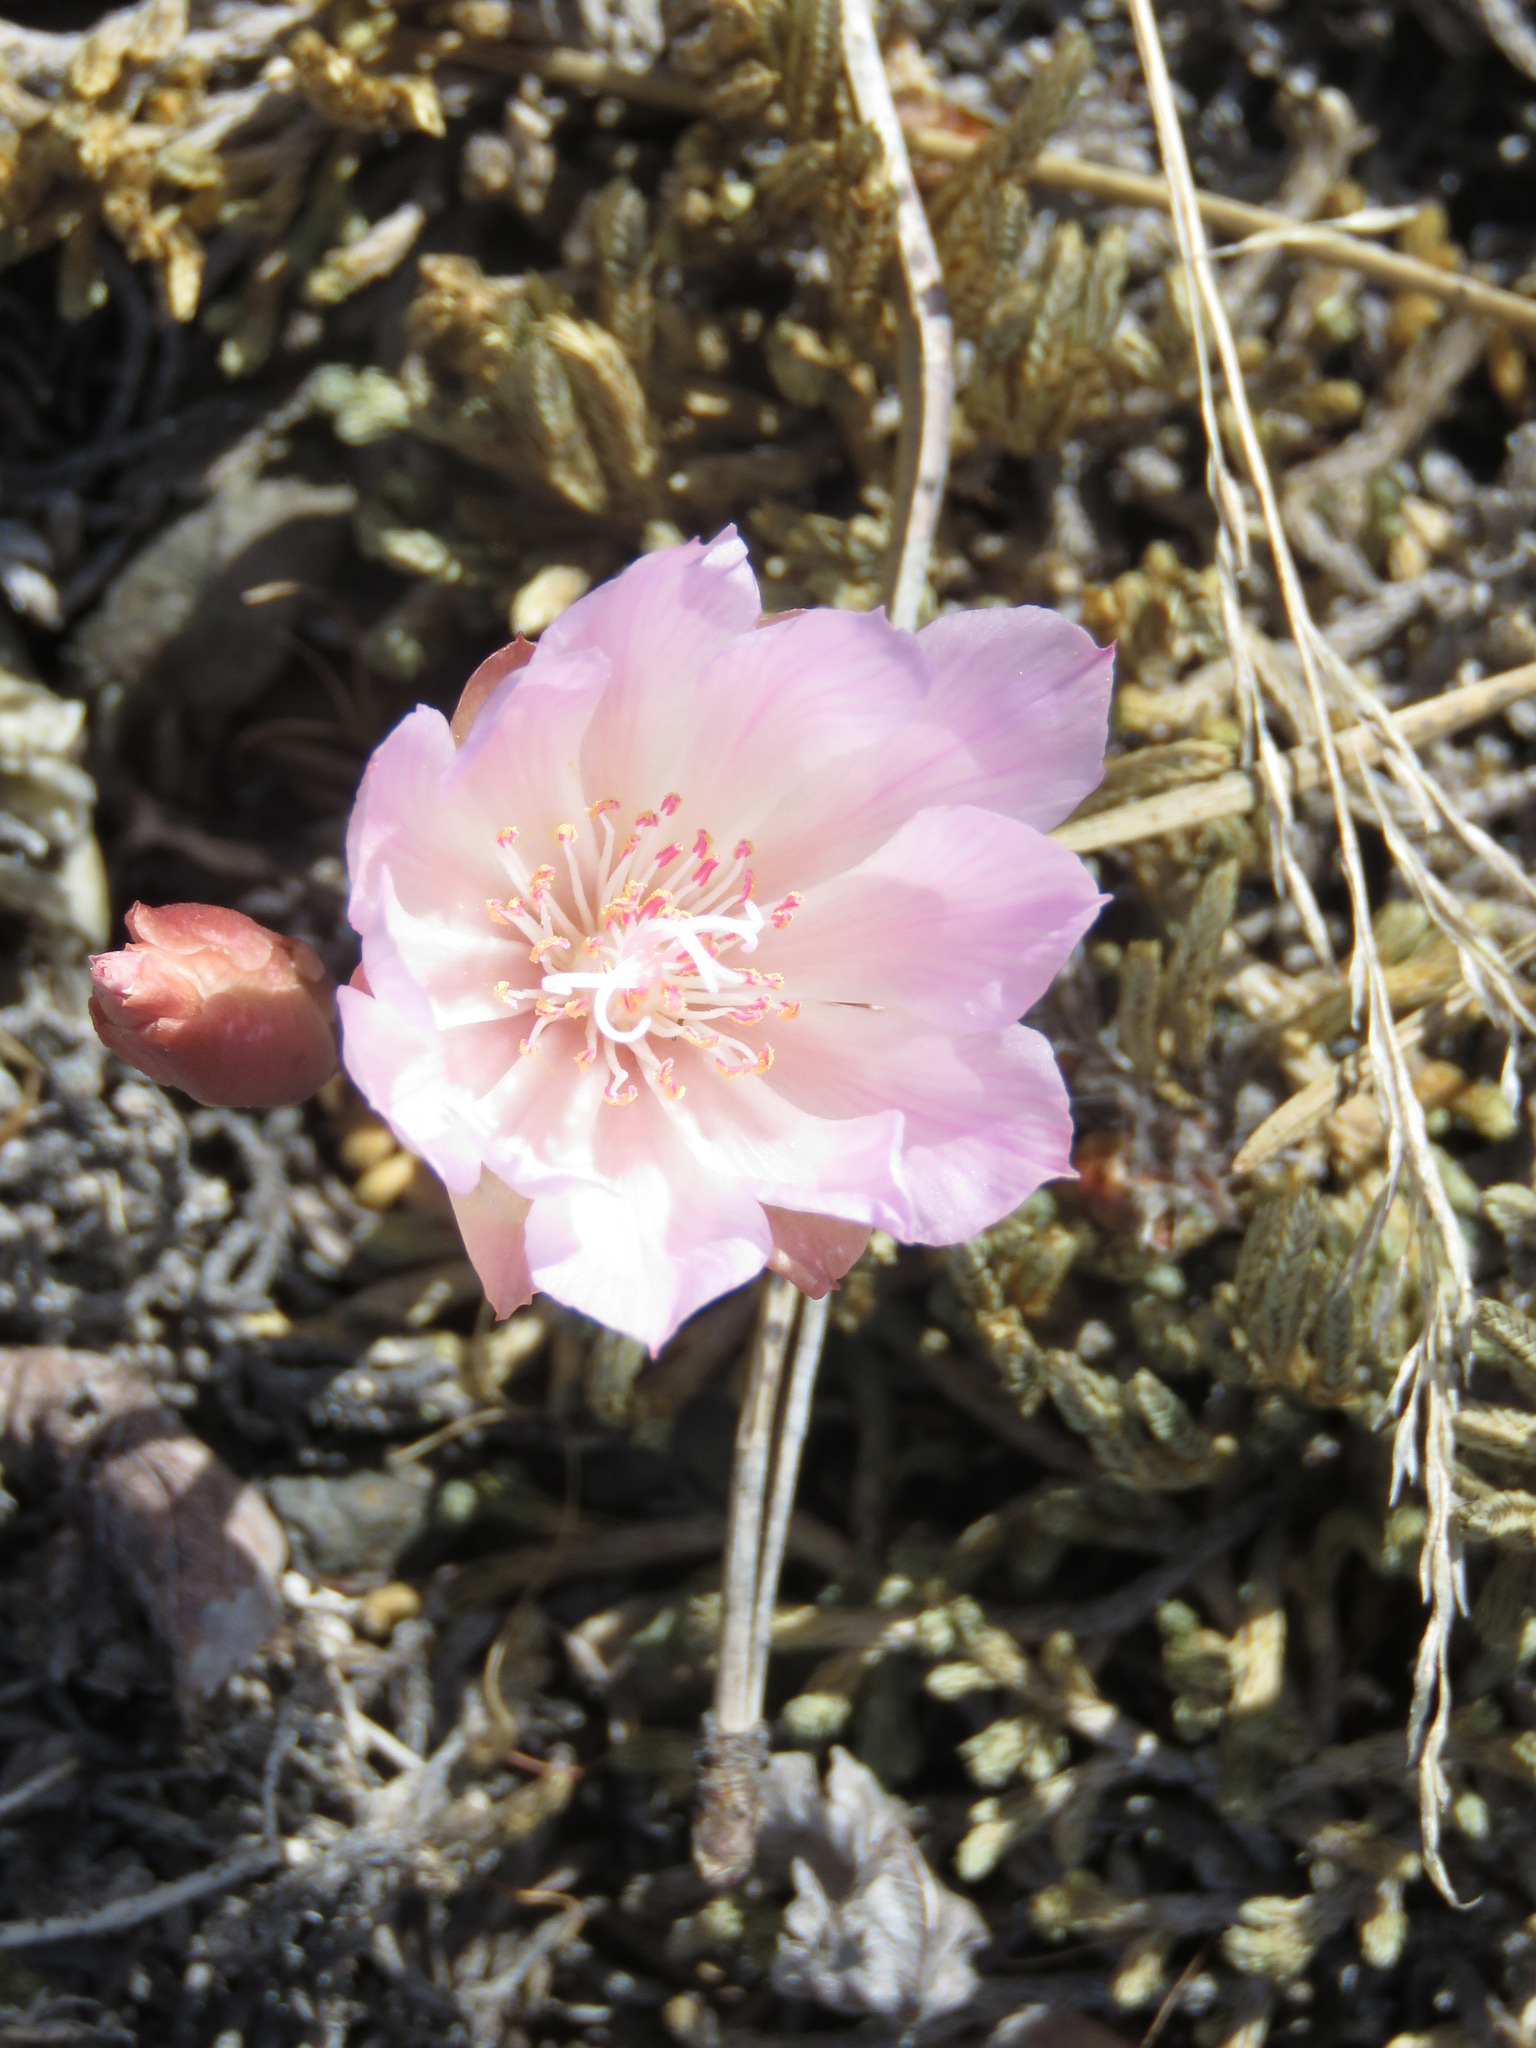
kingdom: Plantae
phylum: Tracheophyta
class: Magnoliopsida
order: Caryophyllales
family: Montiaceae
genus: Lewisia
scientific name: Lewisia rediviva
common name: Bitter-root
